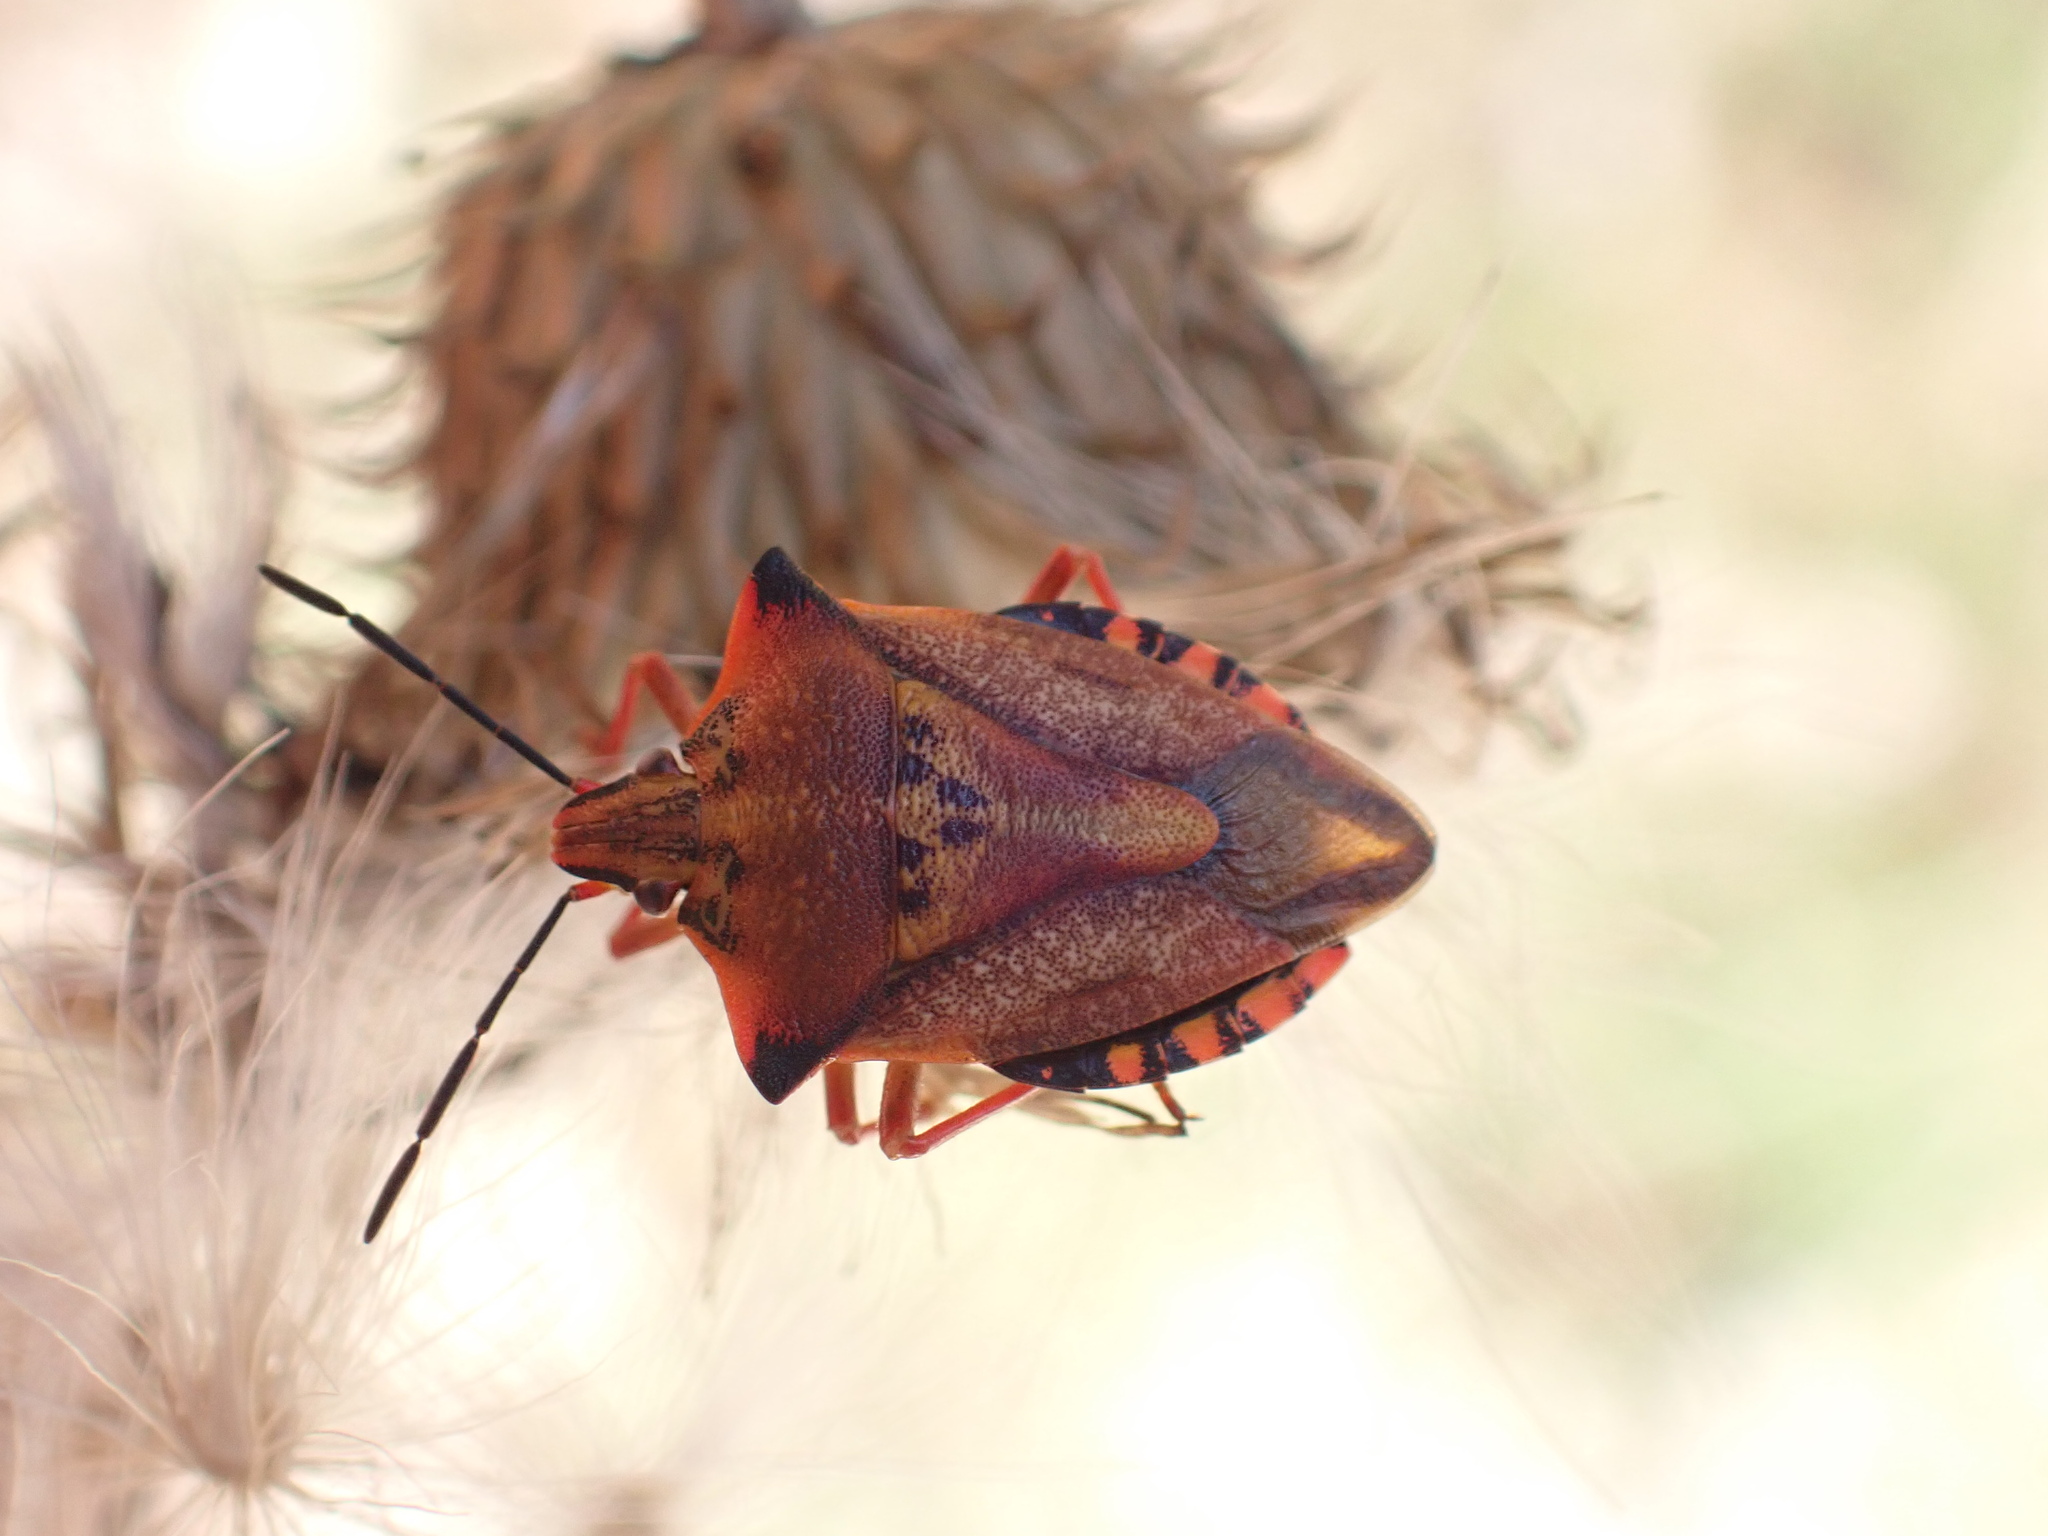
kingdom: Animalia
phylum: Arthropoda
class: Insecta
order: Hemiptera
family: Pentatomidae
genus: Carpocoris
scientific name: Carpocoris mediterraneus
